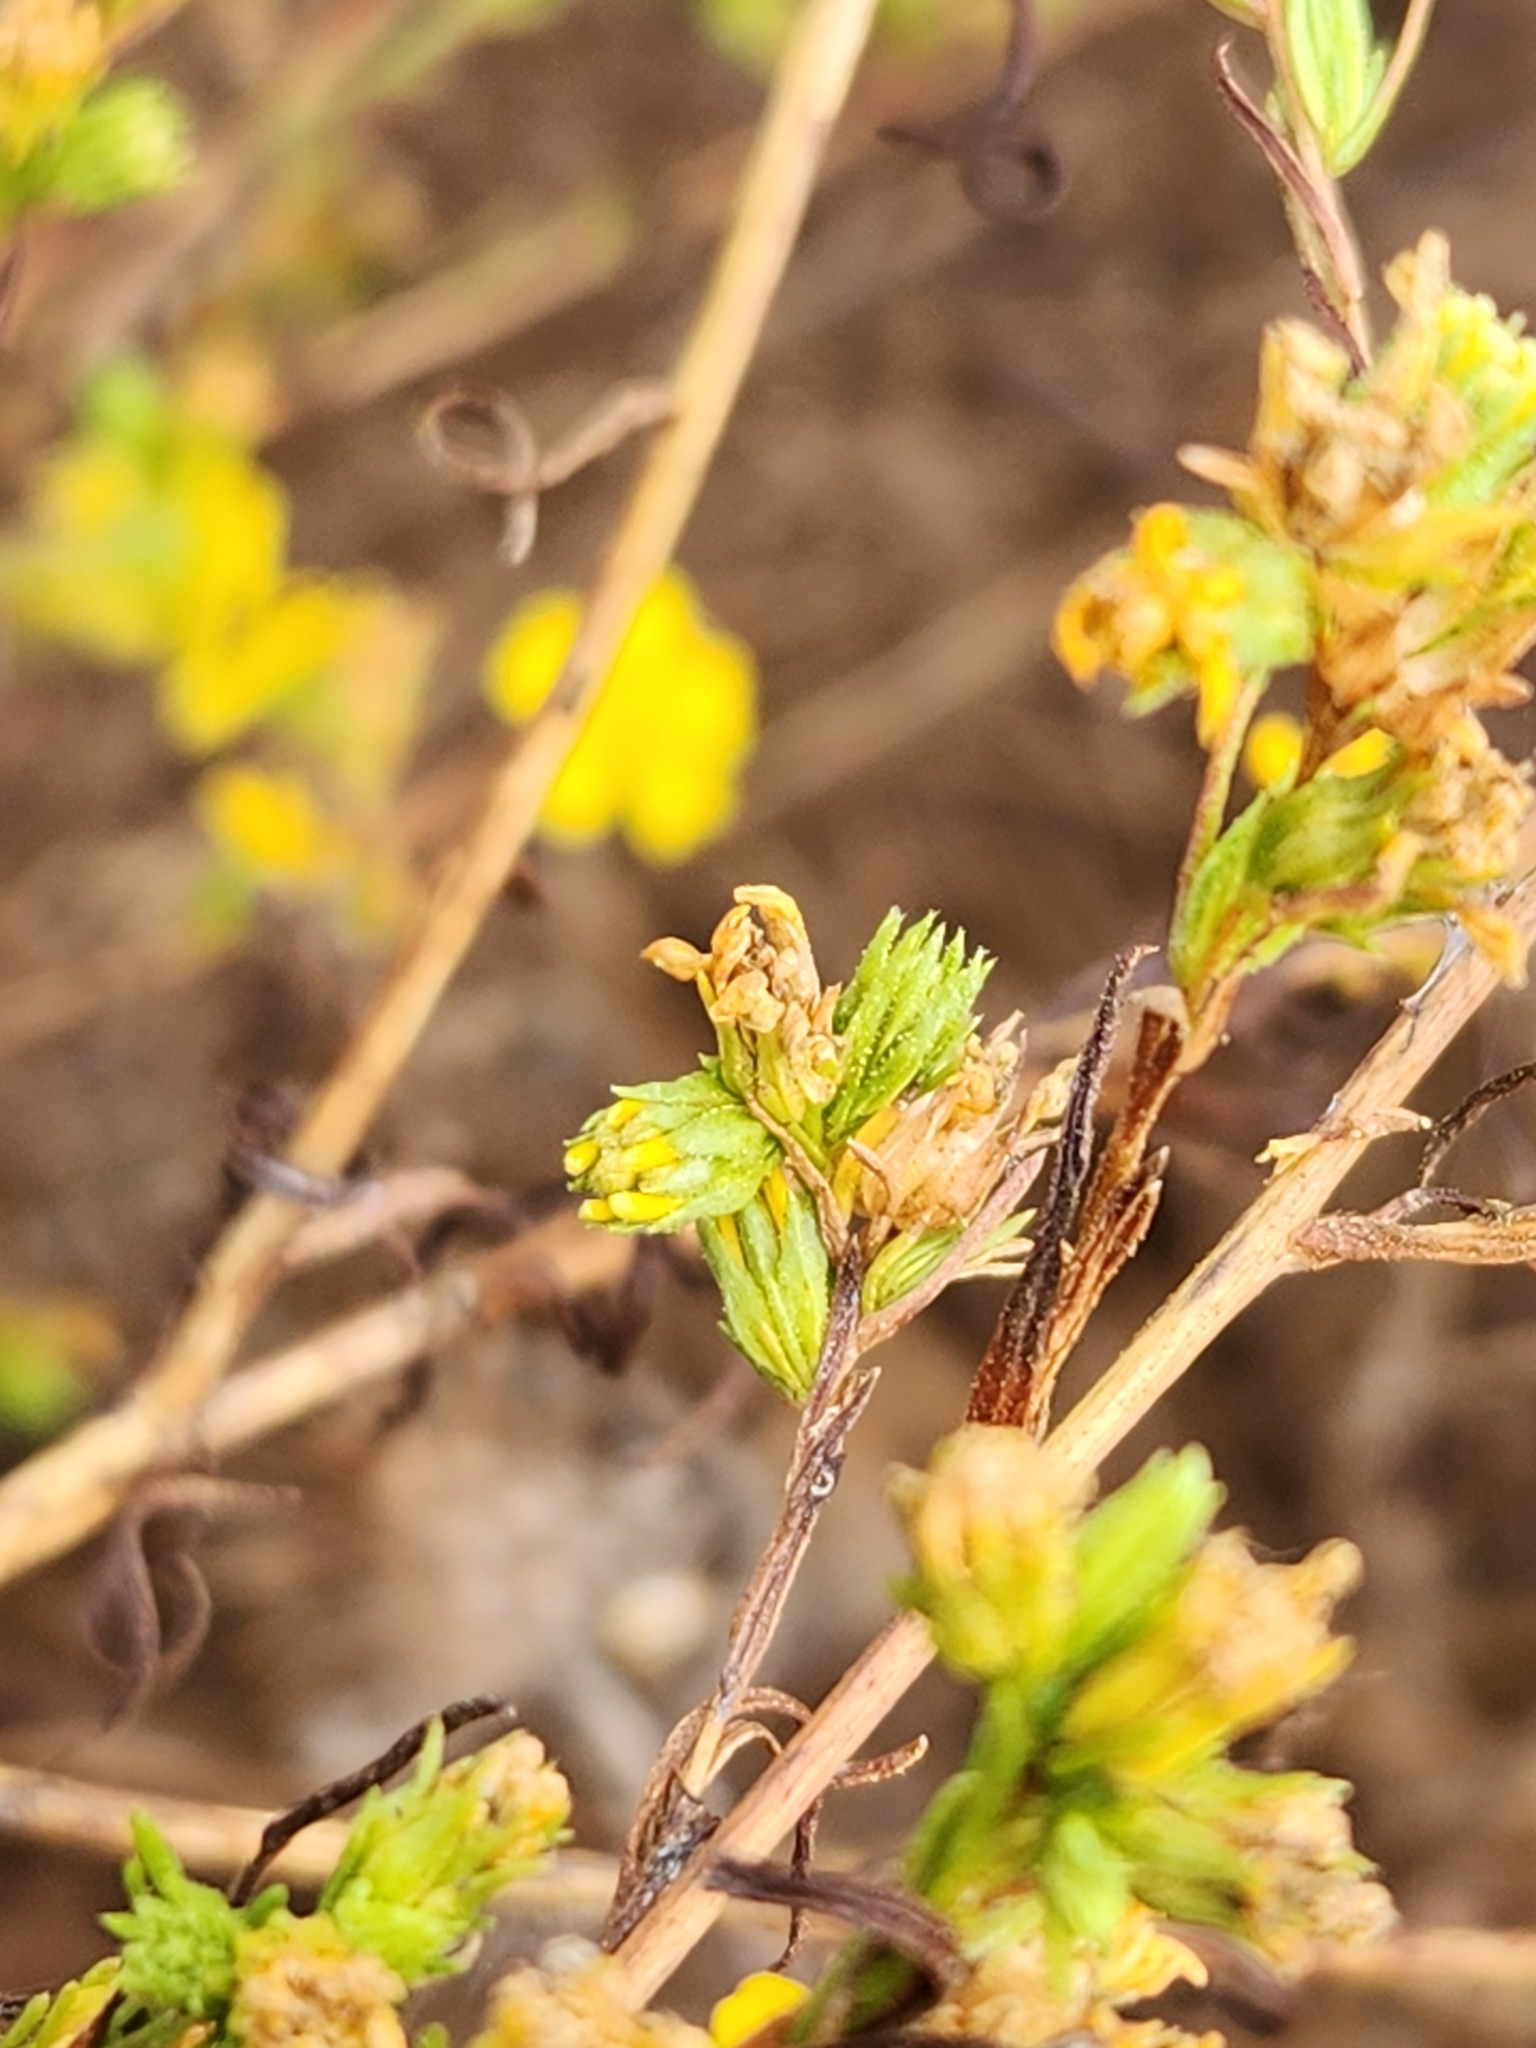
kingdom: Plantae
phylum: Tracheophyta
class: Magnoliopsida
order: Asterales
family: Asteraceae
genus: Deinandra
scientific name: Deinandra fasciculata
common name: Clustered tarweed
